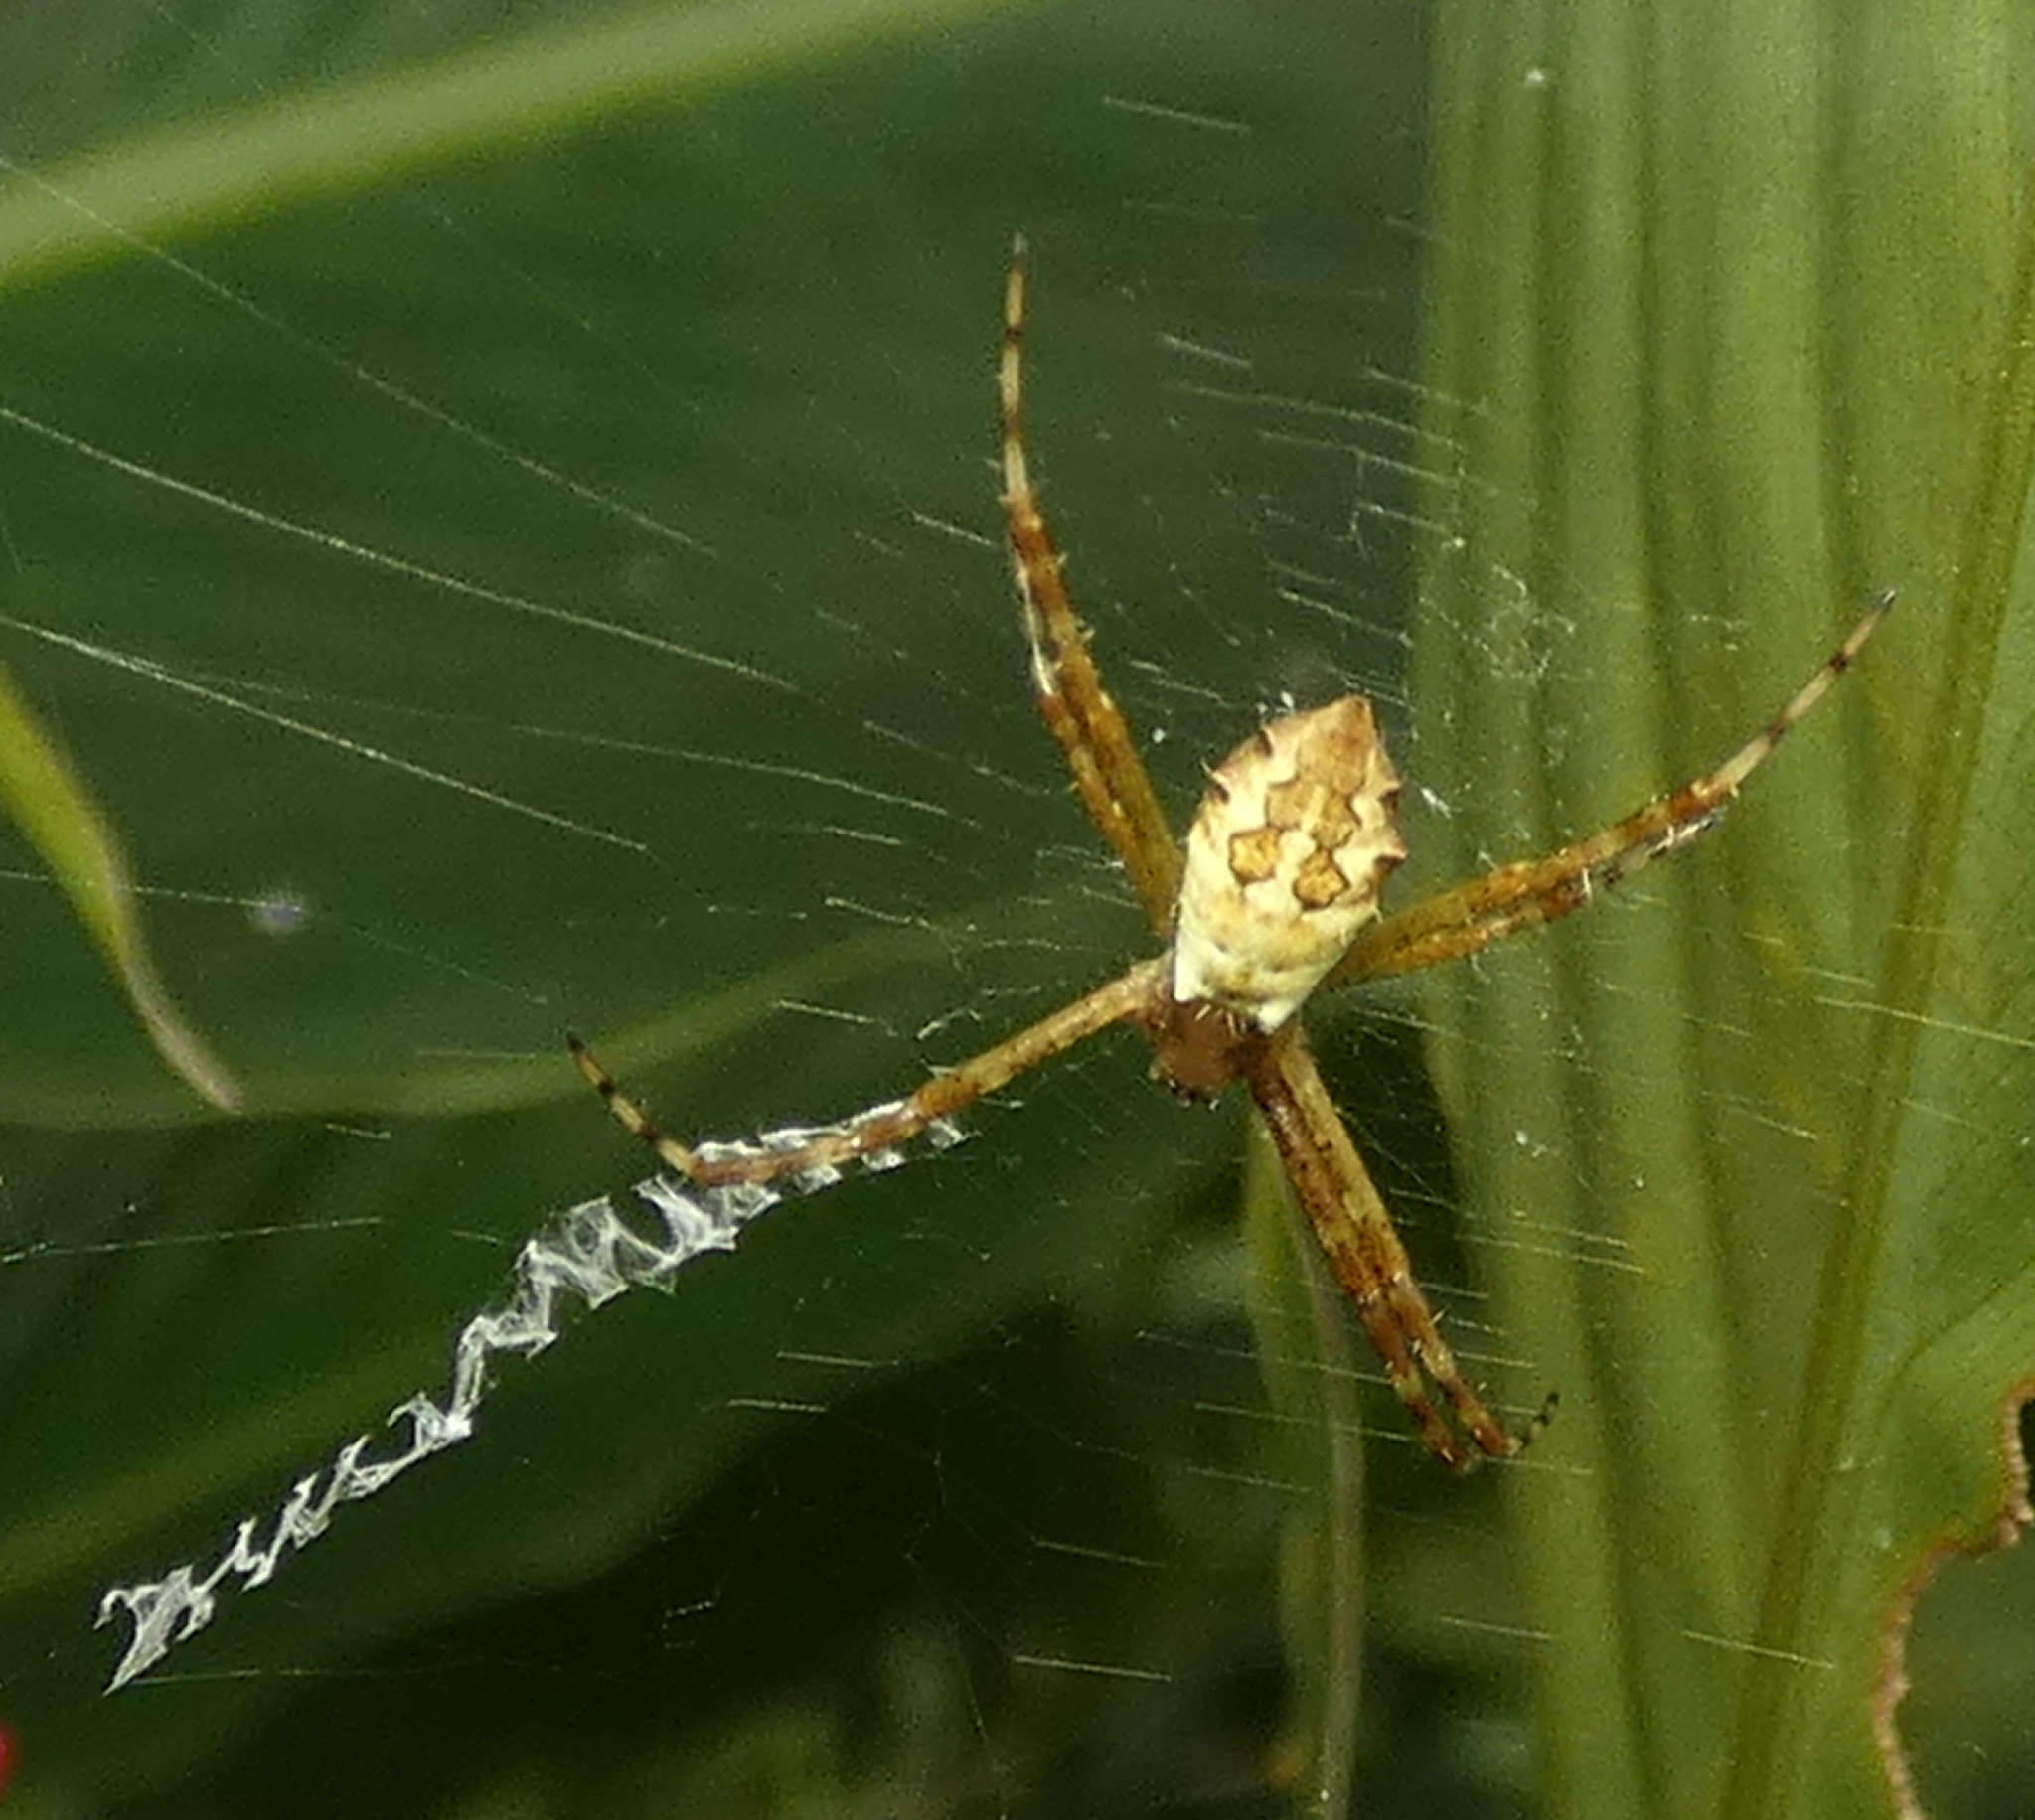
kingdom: Animalia
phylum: Arthropoda
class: Arachnida
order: Araneae
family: Araneidae
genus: Argiope
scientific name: Argiope argentata
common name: Orb weavers
